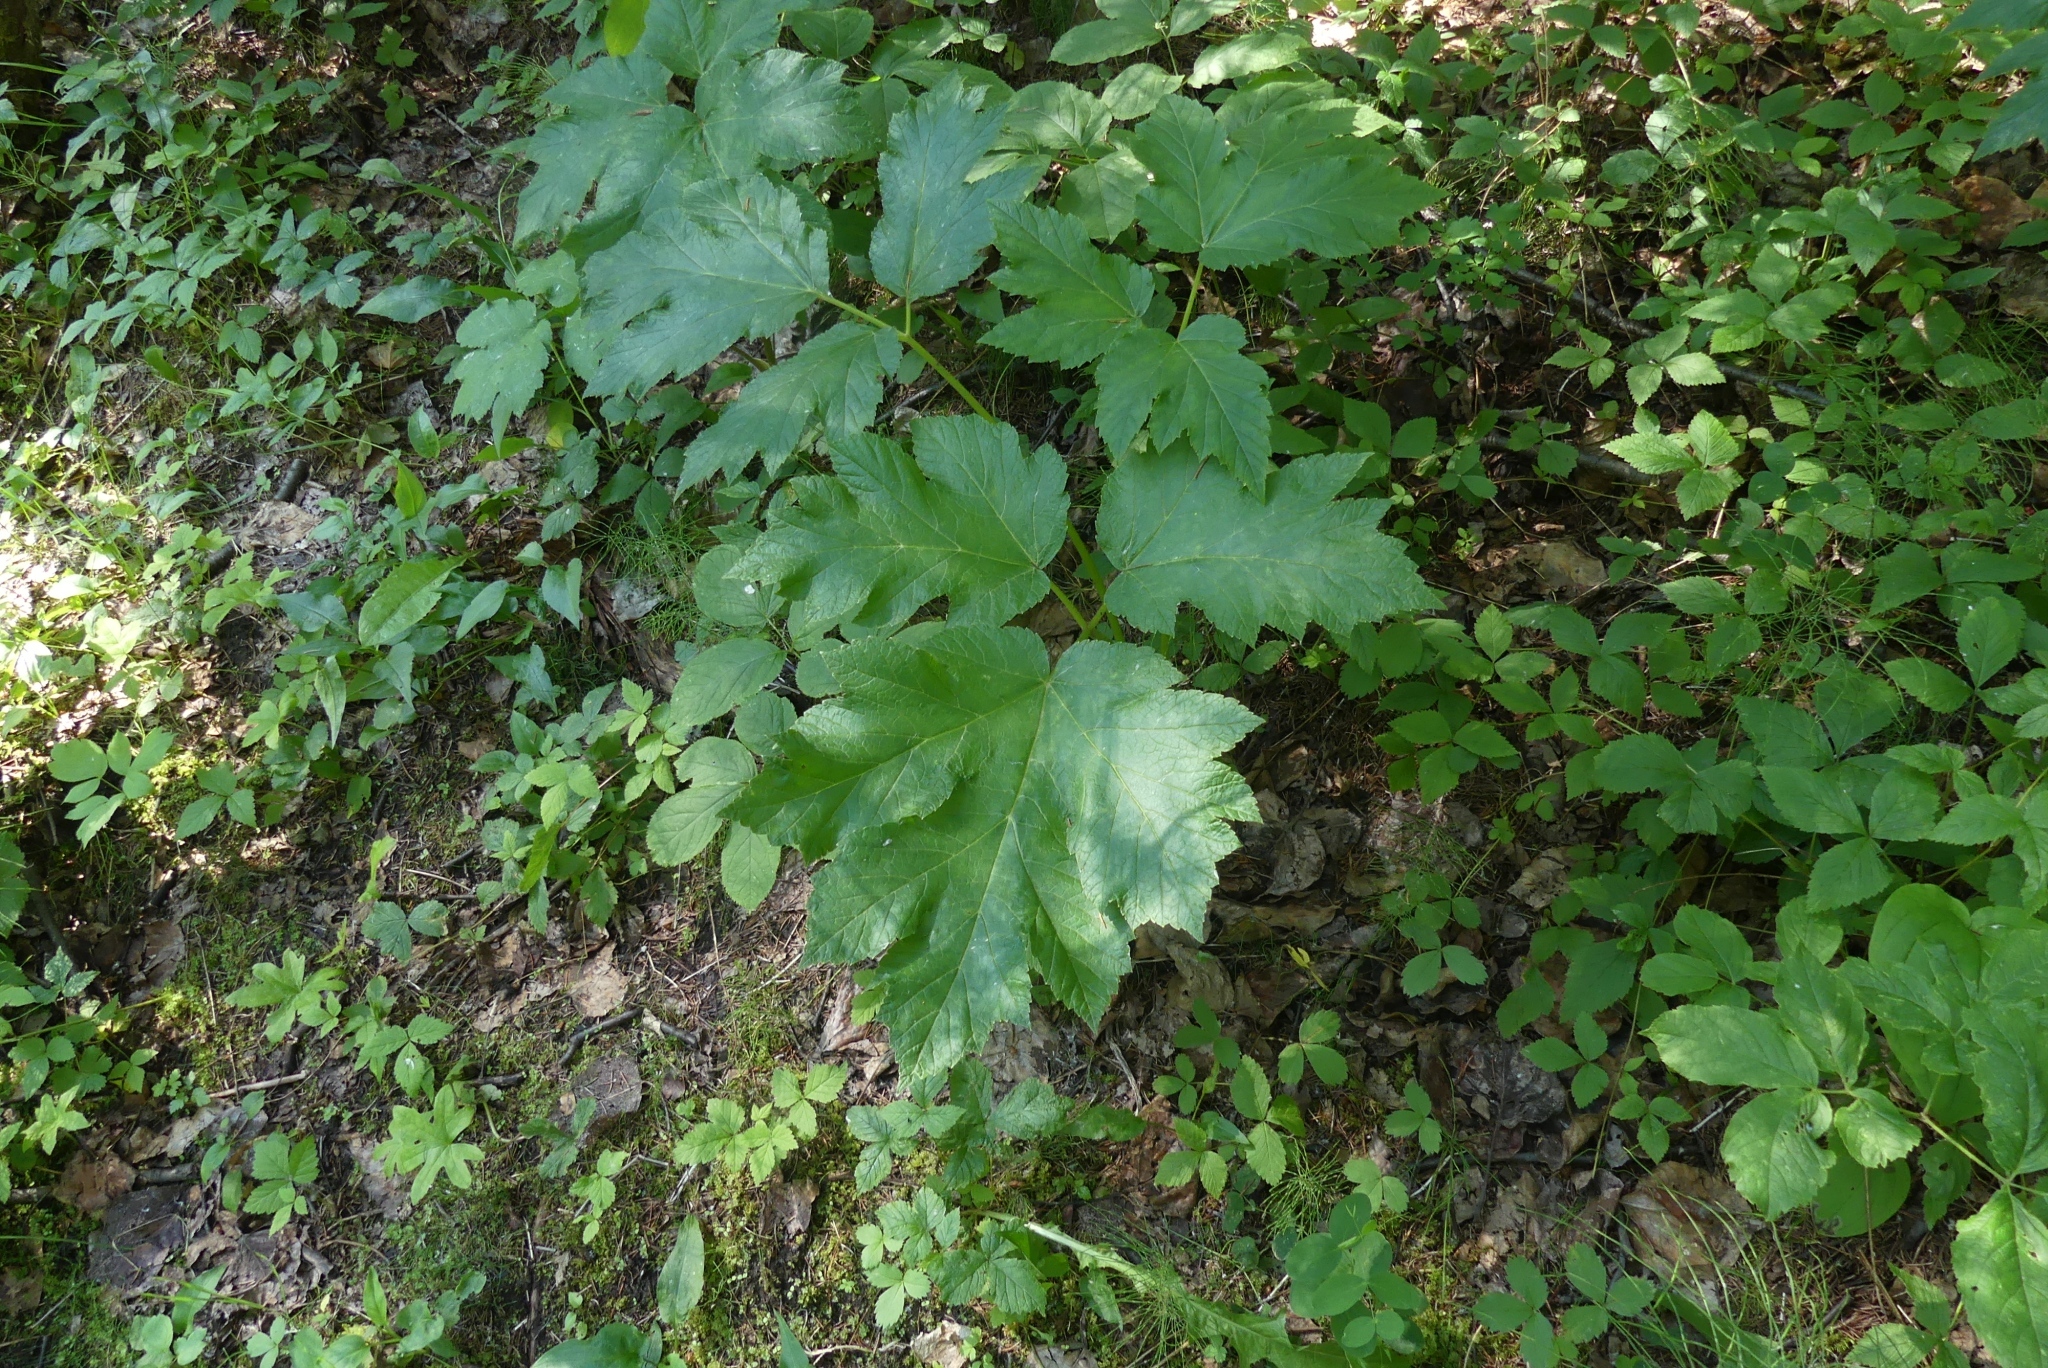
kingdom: Plantae
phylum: Tracheophyta
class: Magnoliopsida
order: Apiales
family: Apiaceae
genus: Heracleum
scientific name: Heracleum maximum
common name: American cow parsnip
